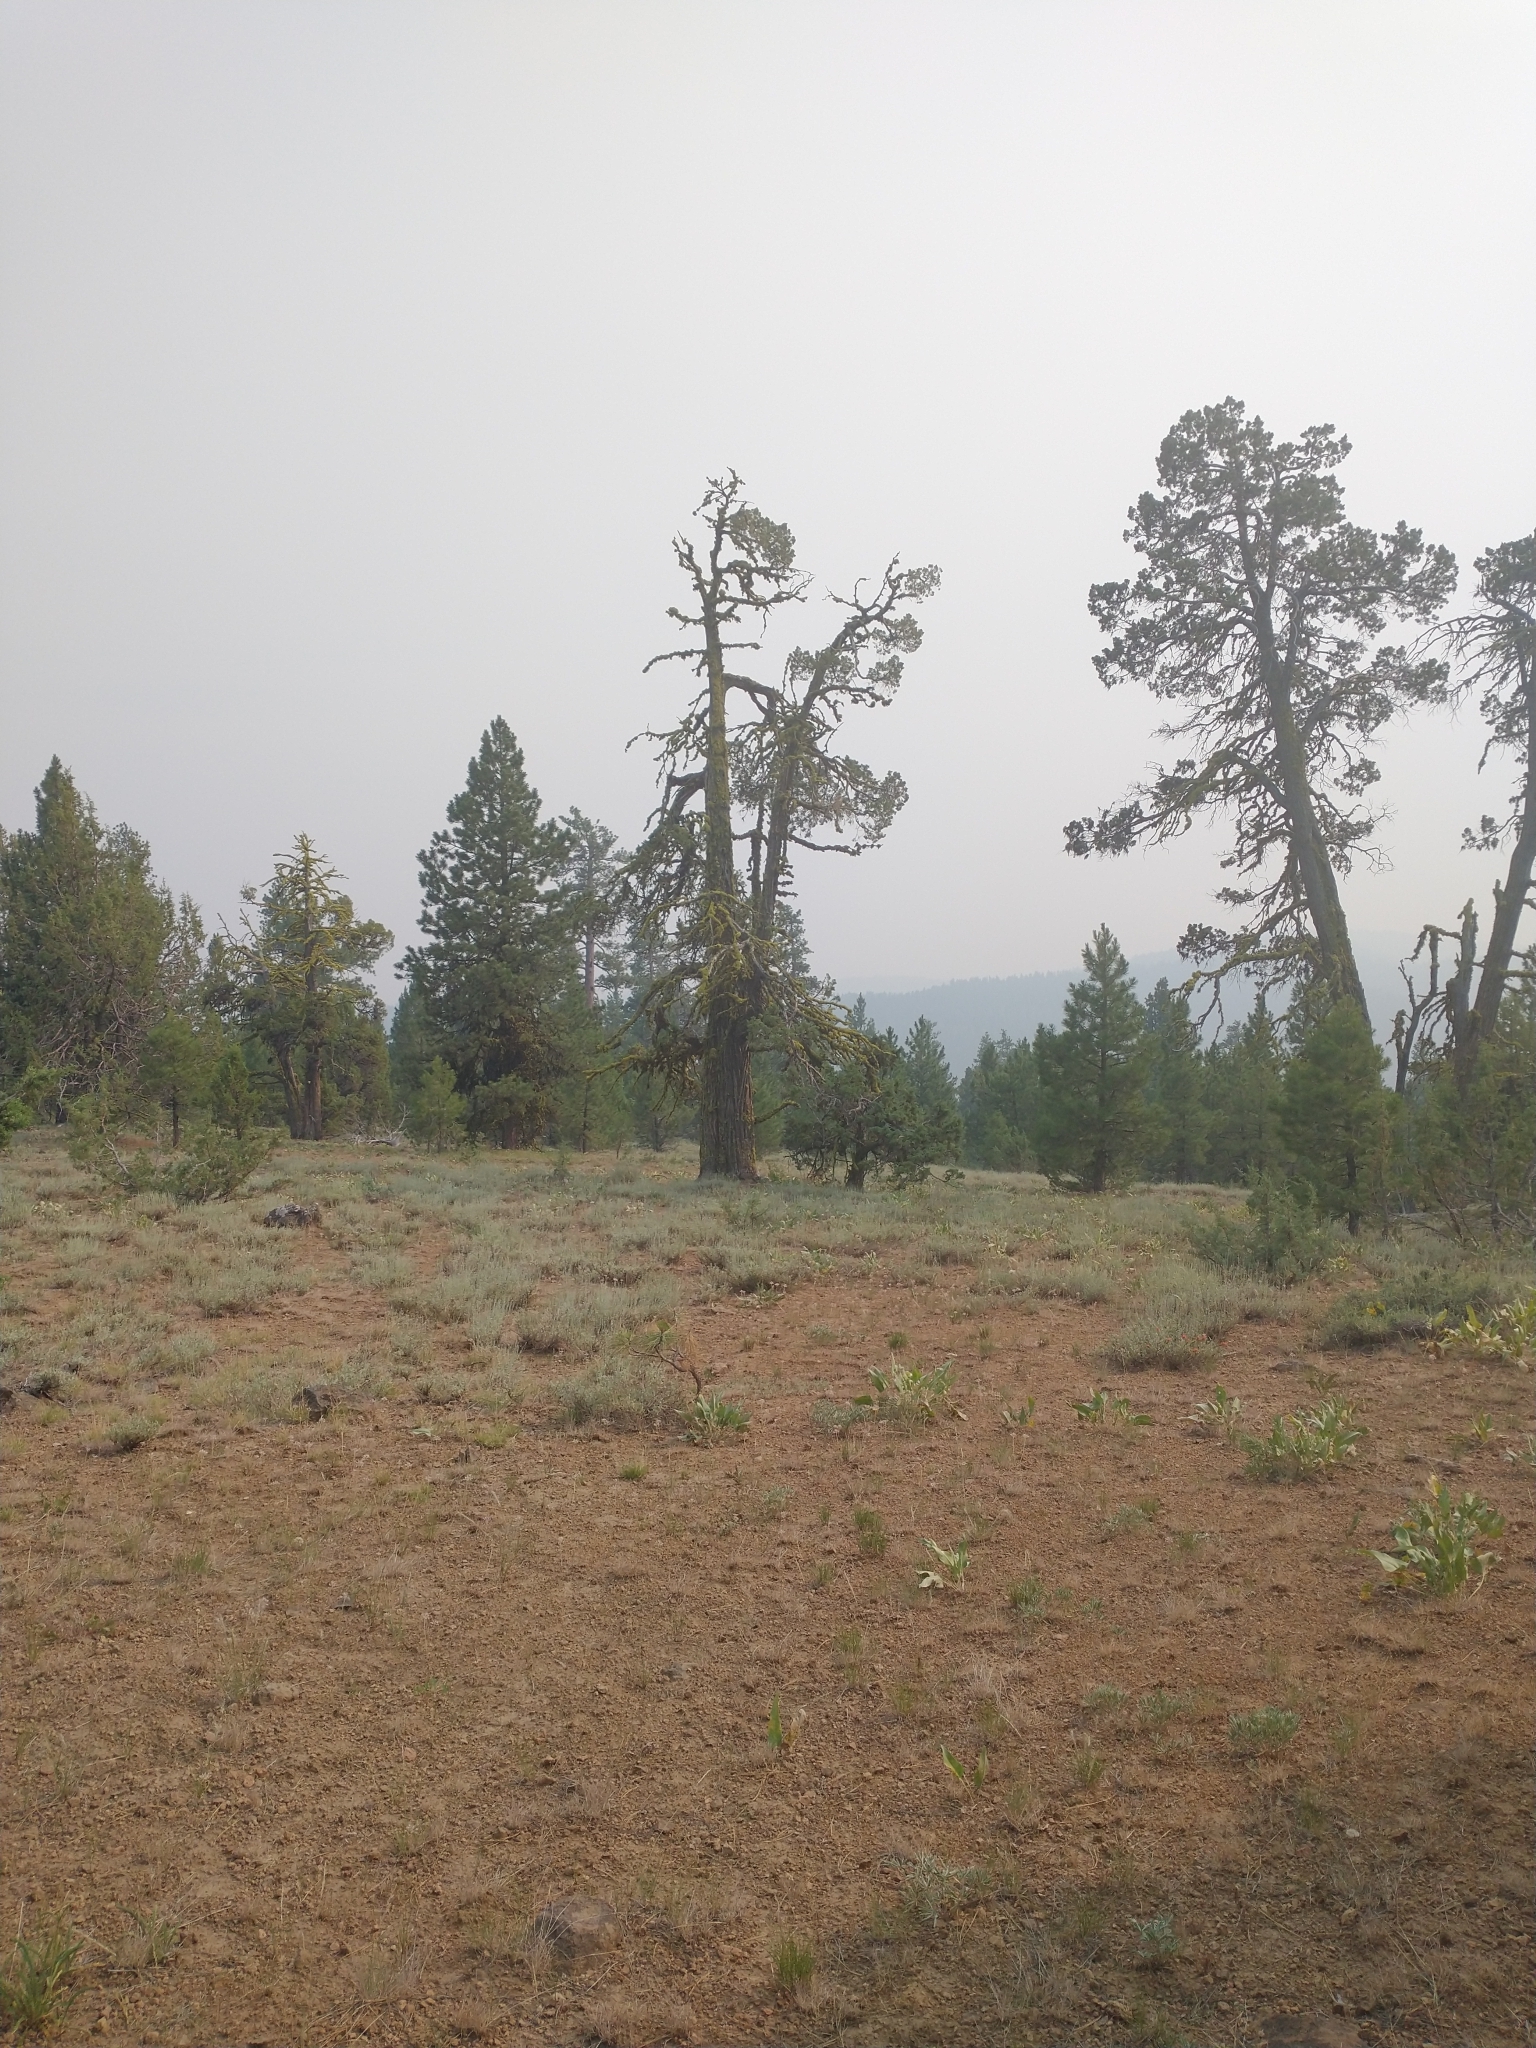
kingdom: Plantae
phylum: Tracheophyta
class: Pinopsida
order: Pinales
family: Cupressaceae
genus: Juniperus
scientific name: Juniperus occidentalis
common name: Western juniper
